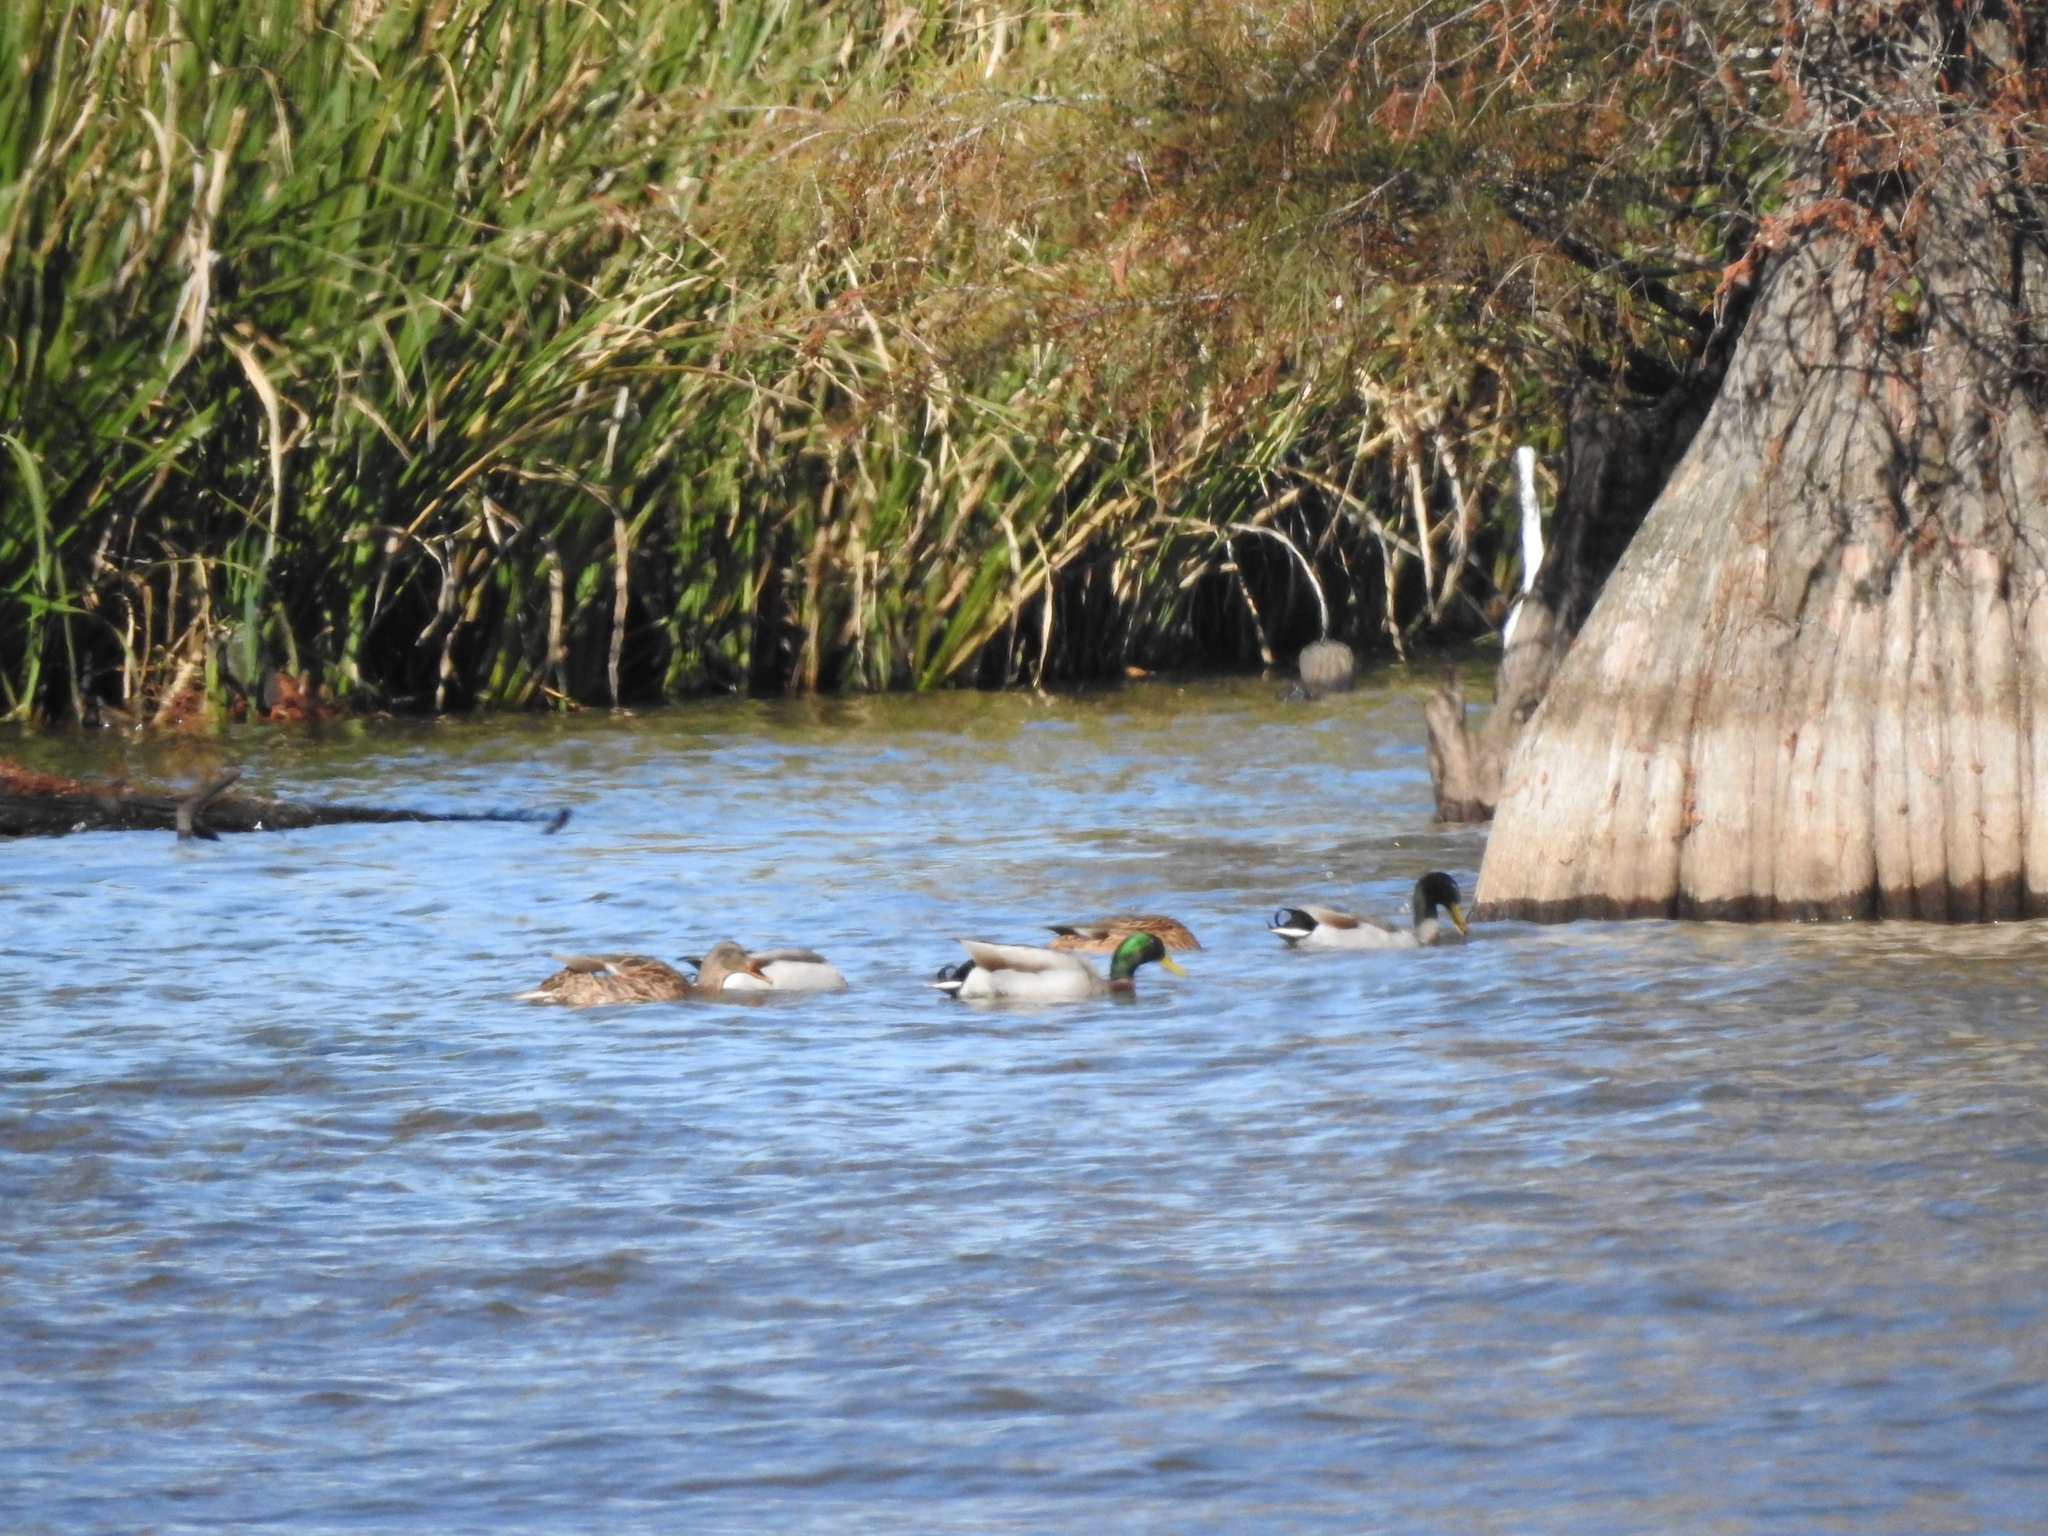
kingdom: Animalia
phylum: Chordata
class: Aves
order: Anseriformes
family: Anatidae
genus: Anas
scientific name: Anas platyrhynchos
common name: Mallard
